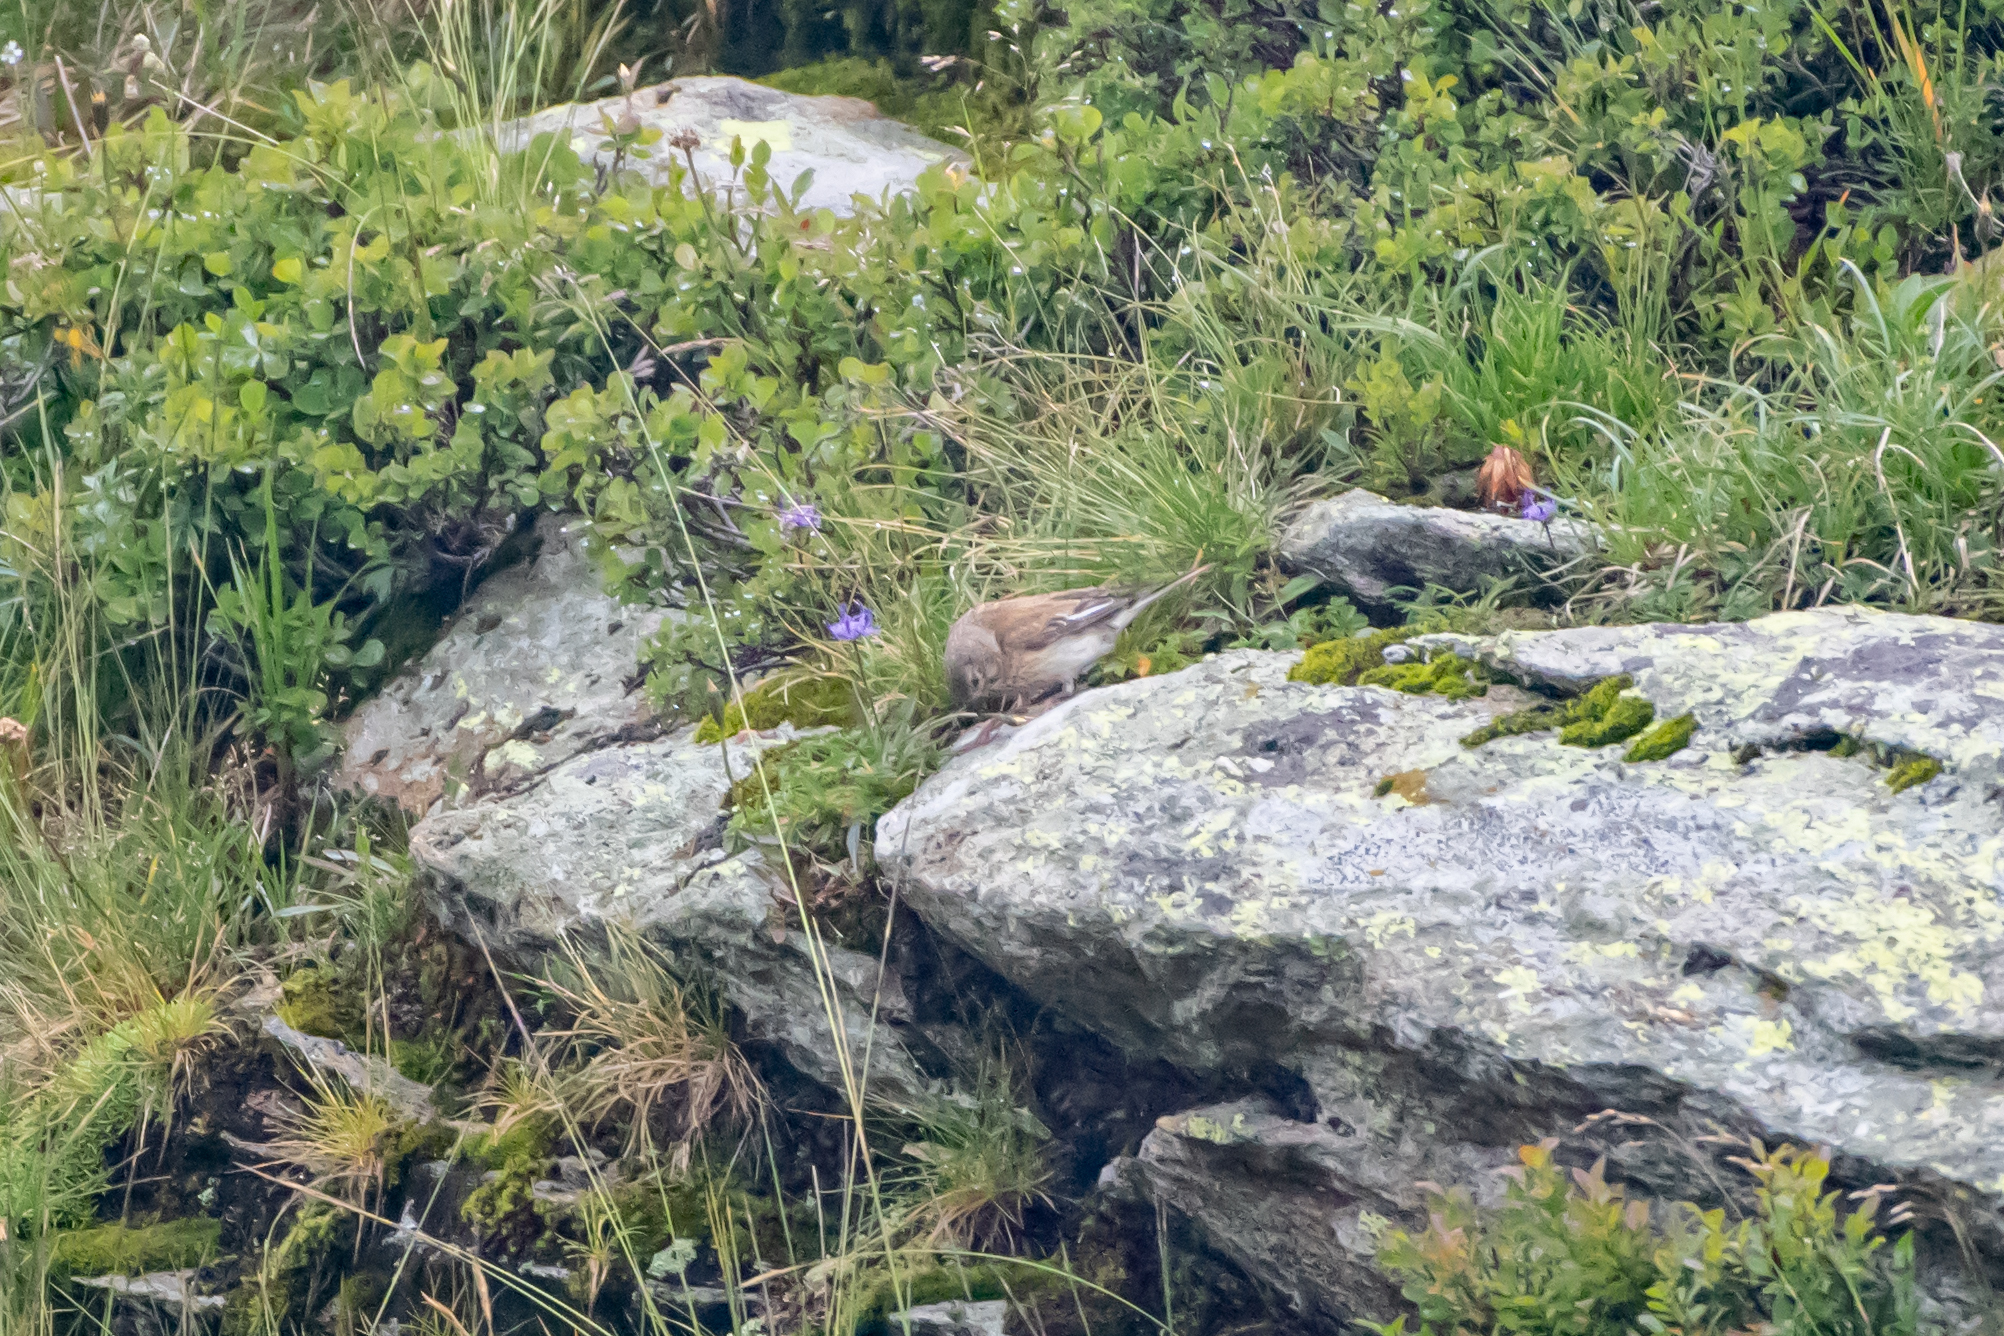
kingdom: Animalia
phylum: Chordata
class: Aves
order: Passeriformes
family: Fringillidae
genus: Linaria
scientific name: Linaria cannabina
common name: Common linnet
